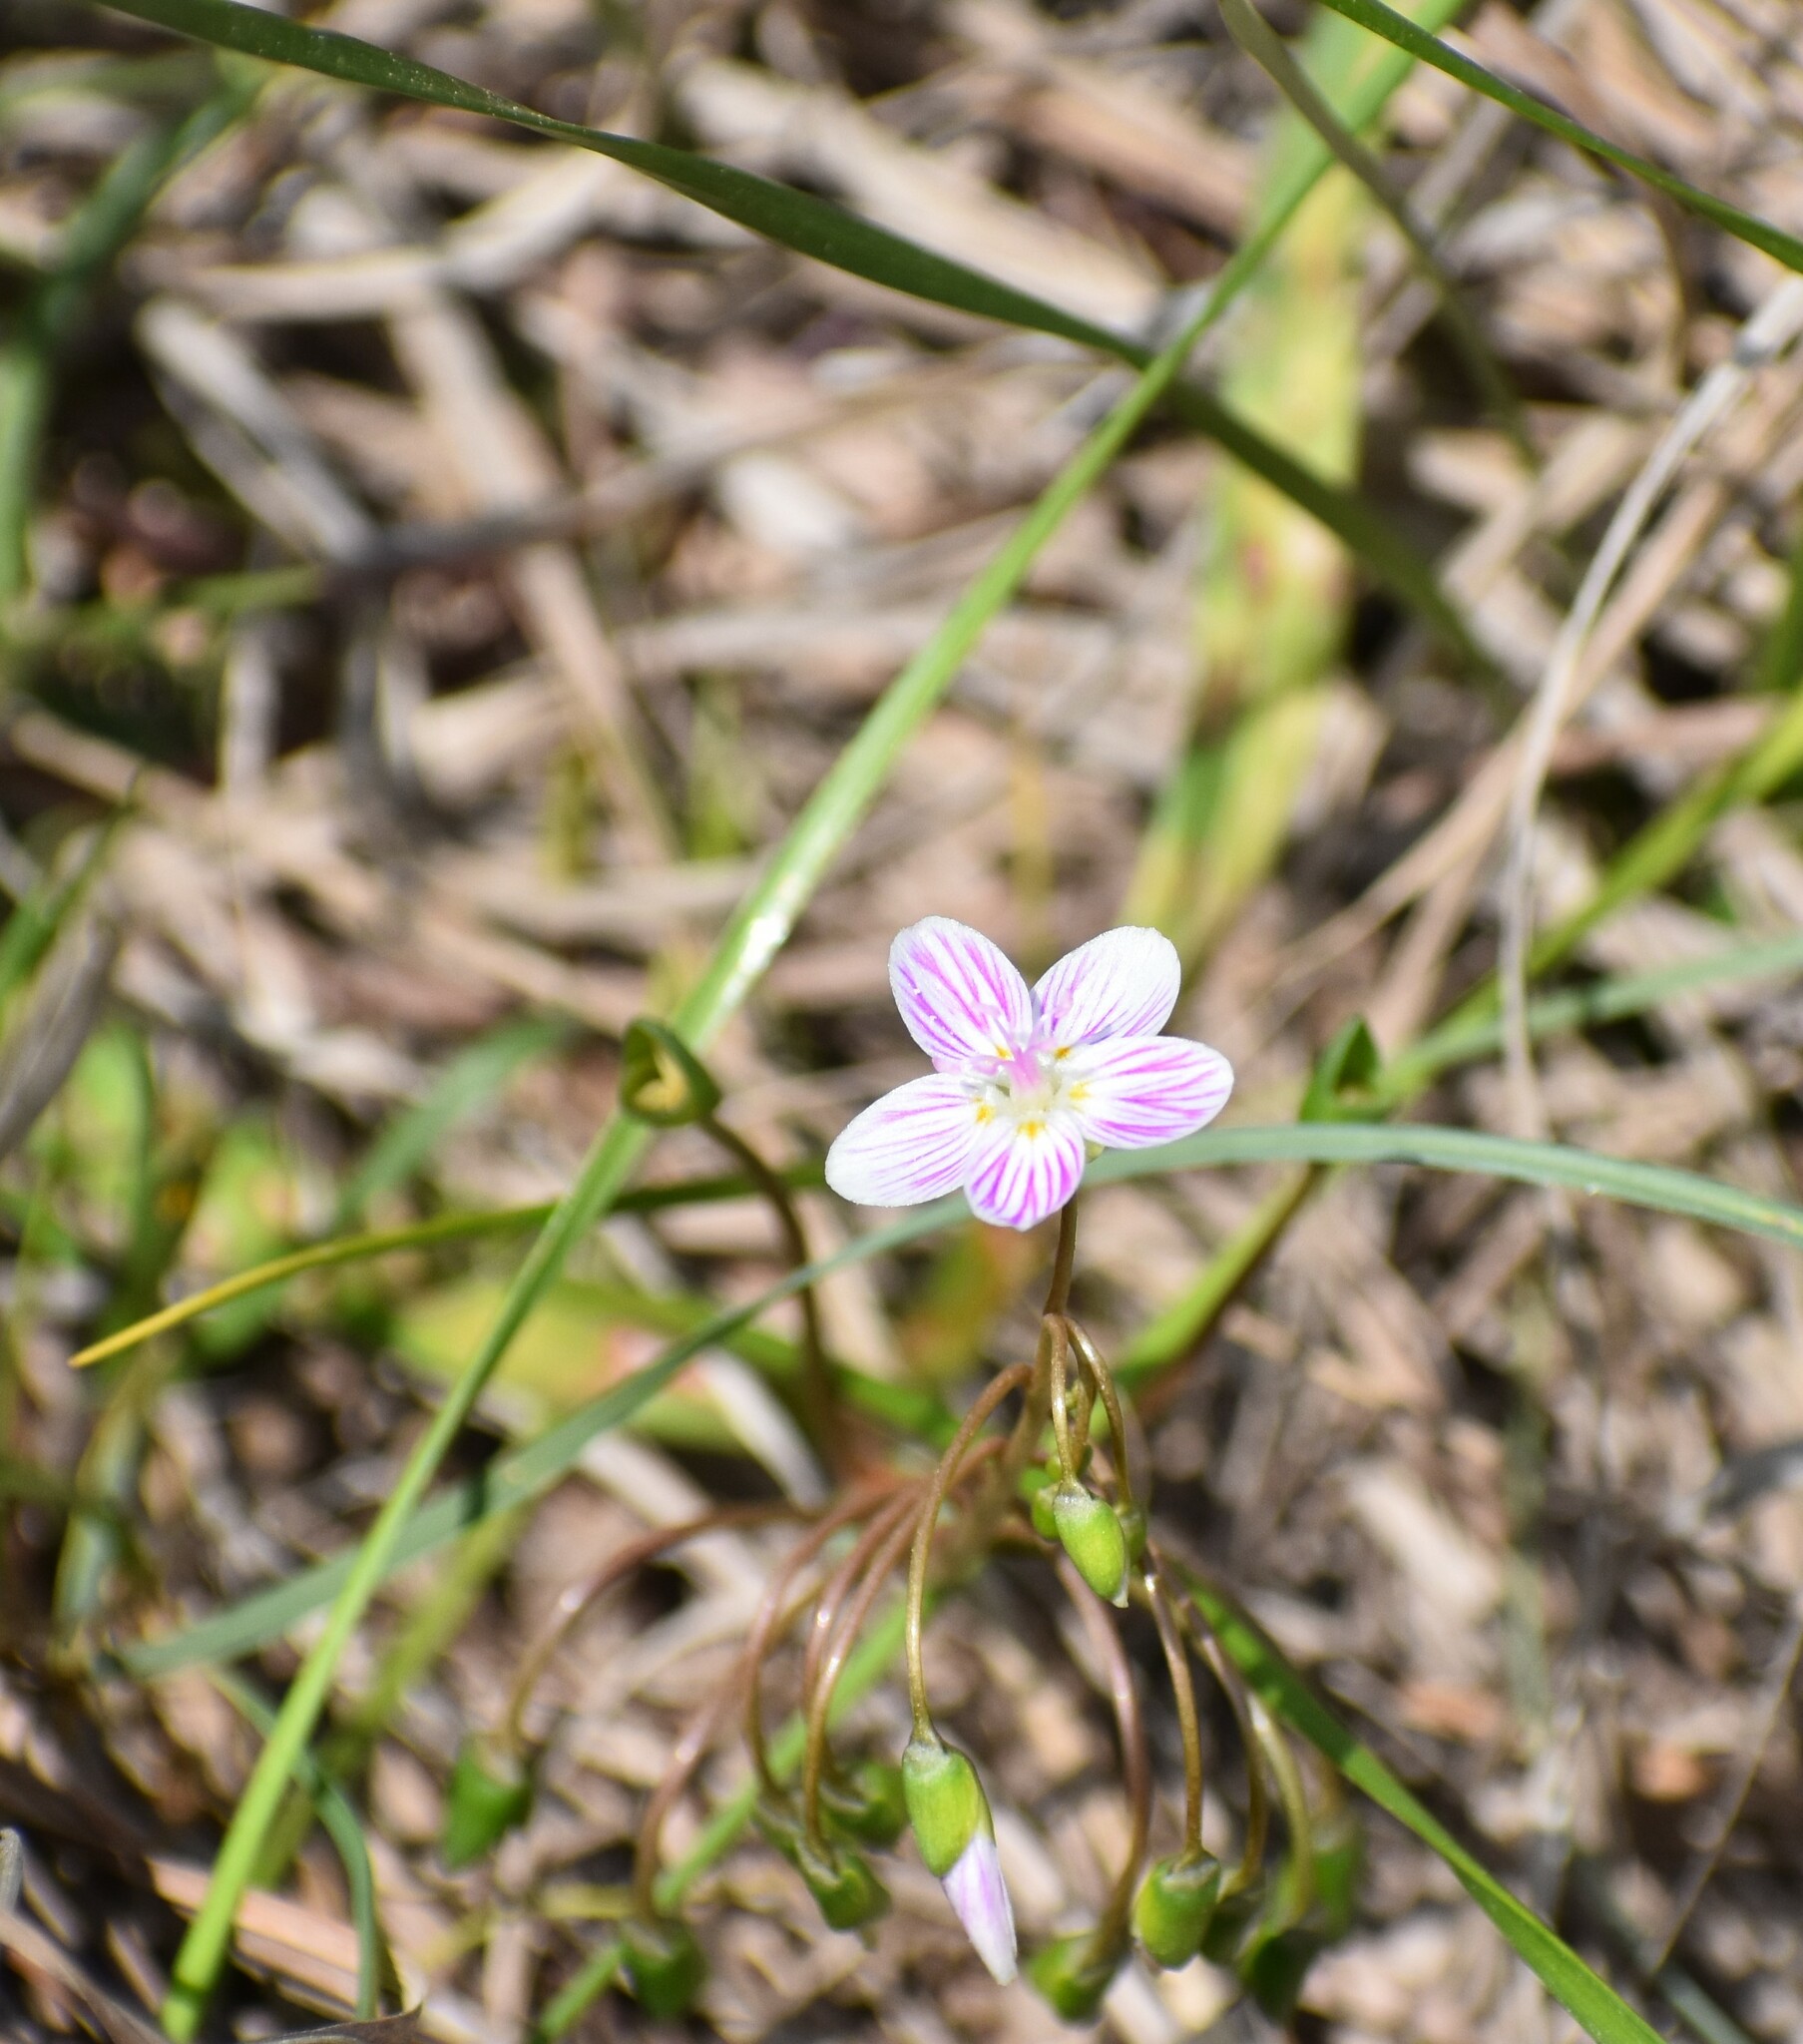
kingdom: Plantae
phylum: Tracheophyta
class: Magnoliopsida
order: Caryophyllales
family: Montiaceae
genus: Claytonia
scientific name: Claytonia virginica
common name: Virginia springbeauty
